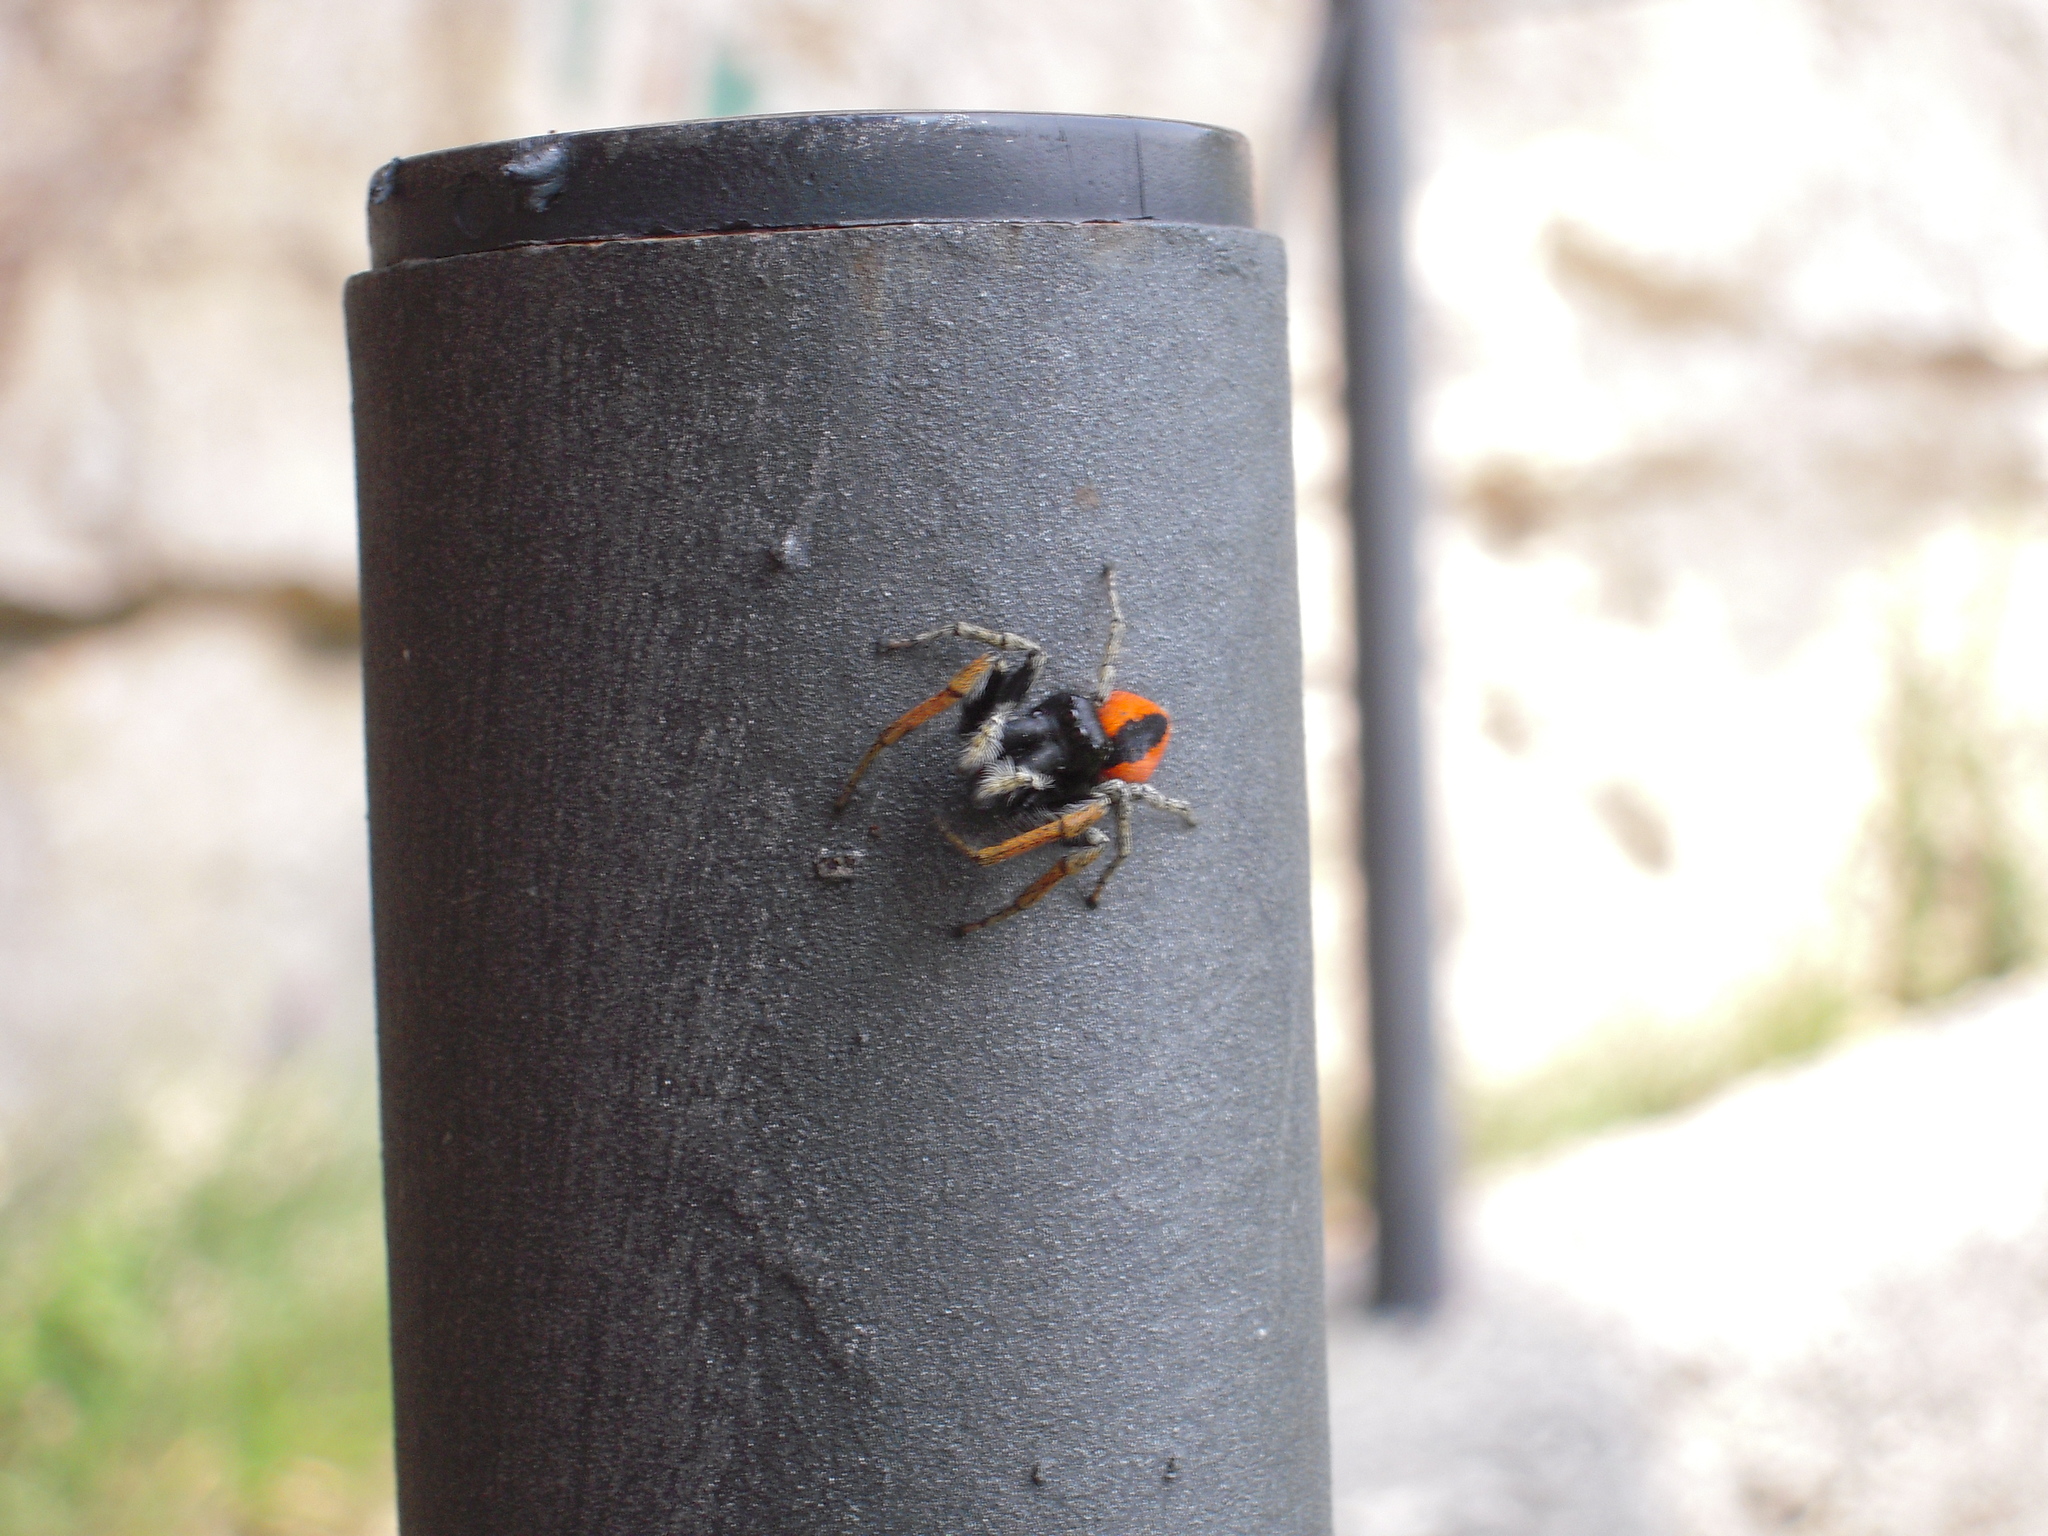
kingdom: Animalia
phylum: Arthropoda
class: Arachnida
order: Araneae
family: Salticidae
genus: Philaeus
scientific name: Philaeus chrysops
